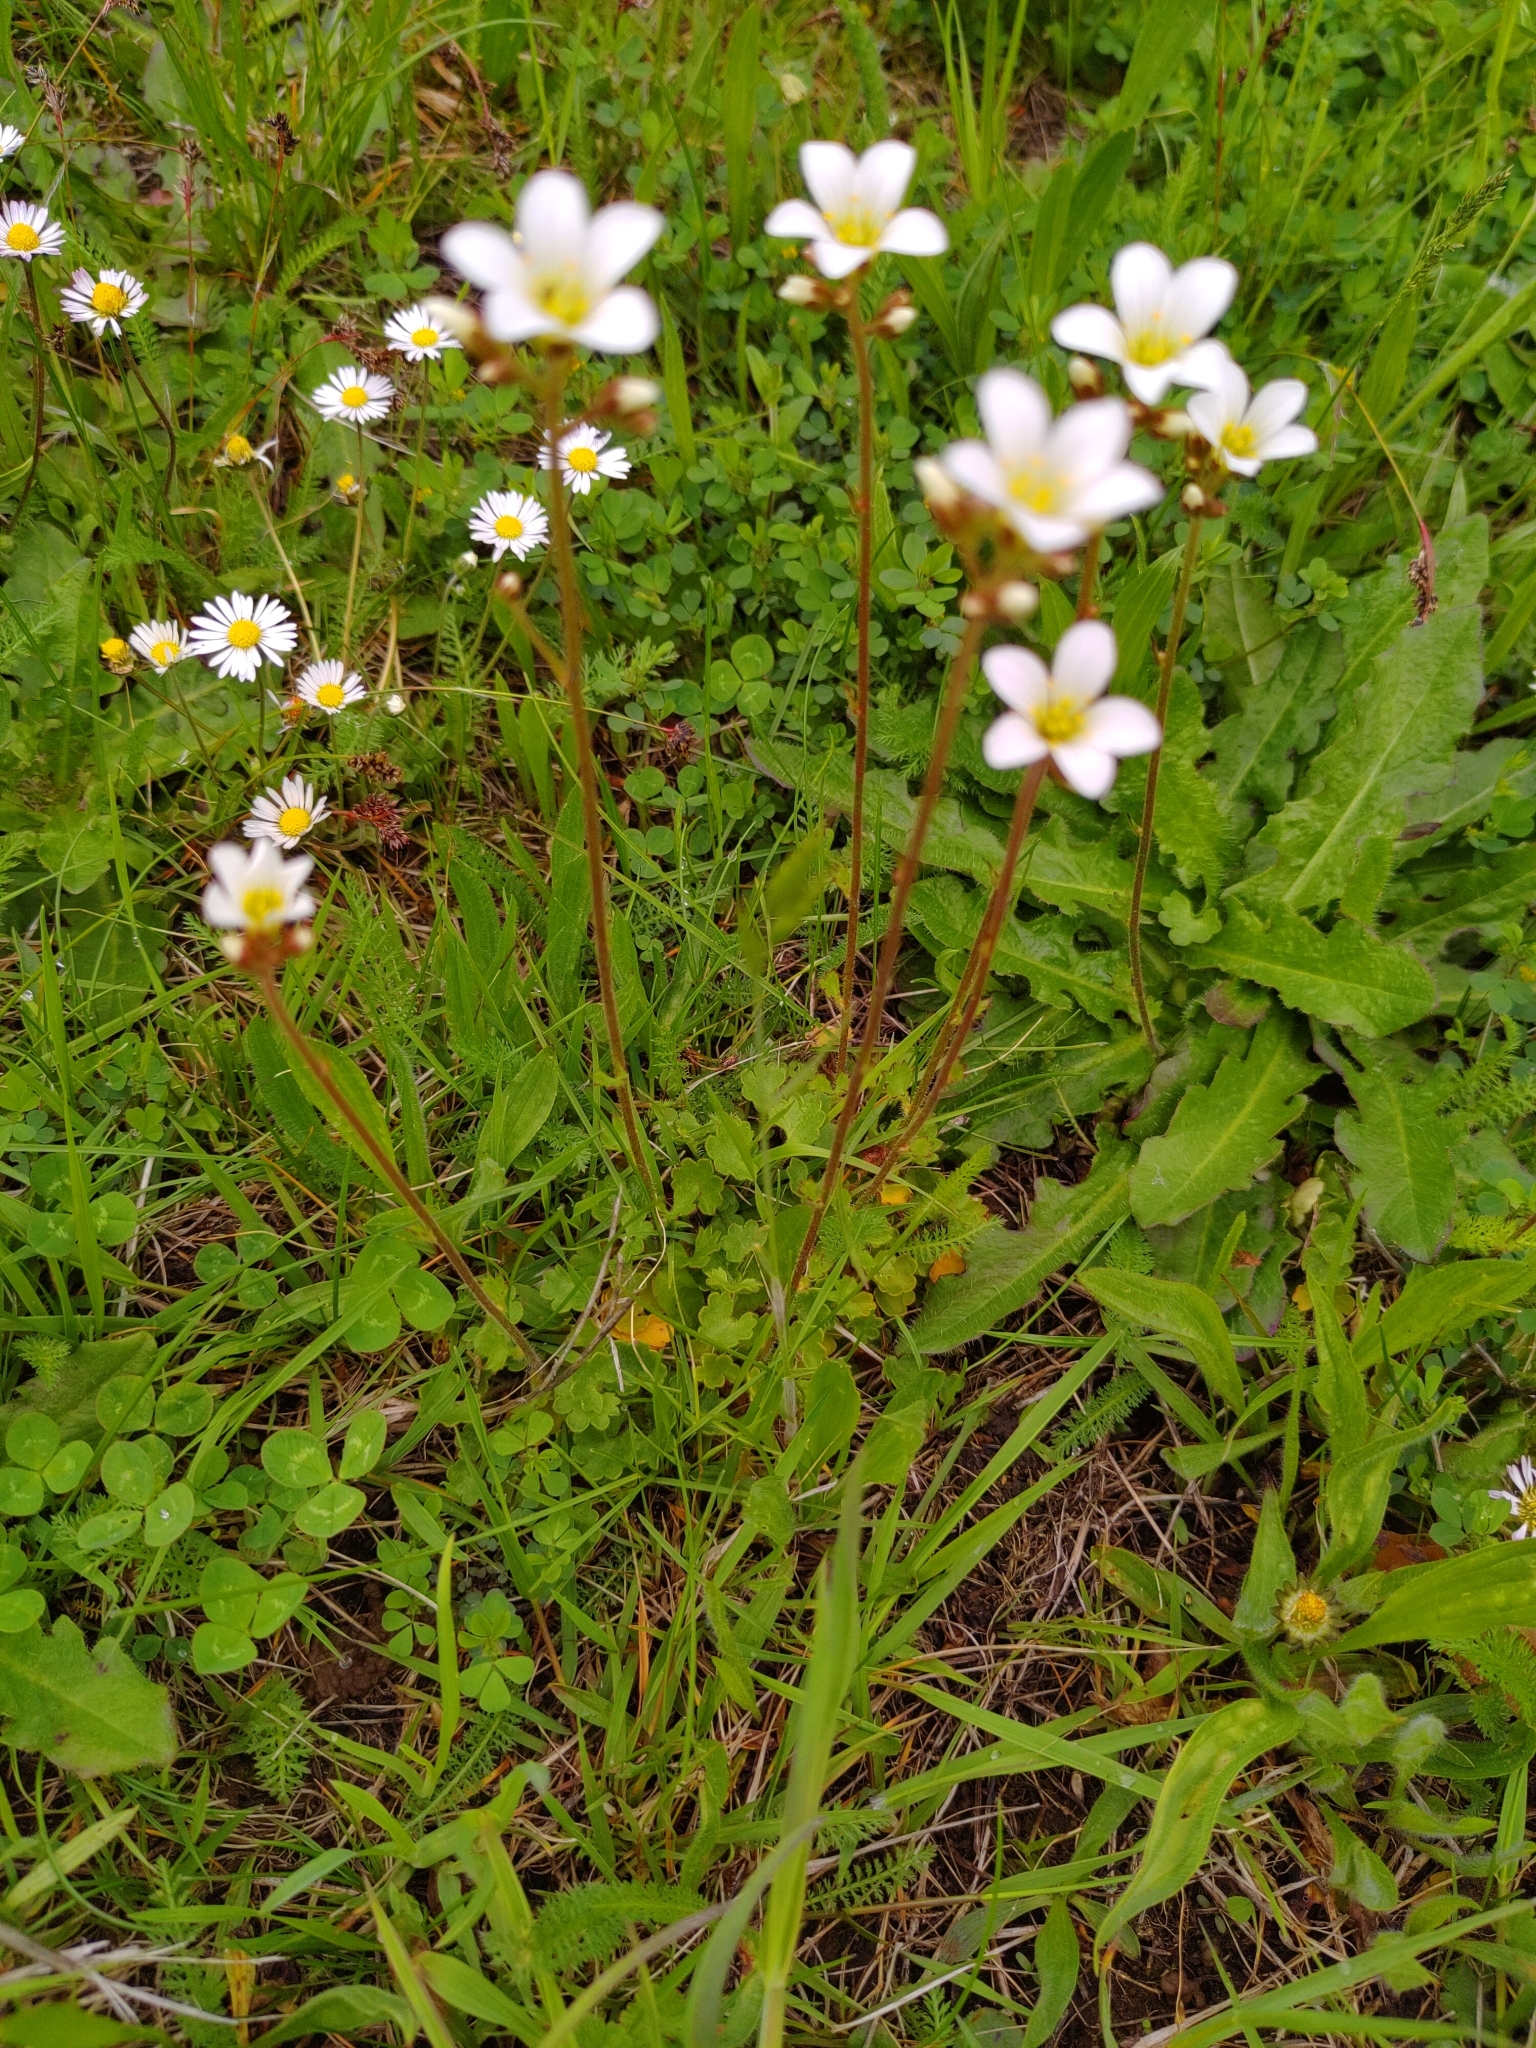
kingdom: Plantae
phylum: Tracheophyta
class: Magnoliopsida
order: Saxifragales
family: Saxifragaceae
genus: Saxifraga
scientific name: Saxifraga granulata
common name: Meadow saxifrage
